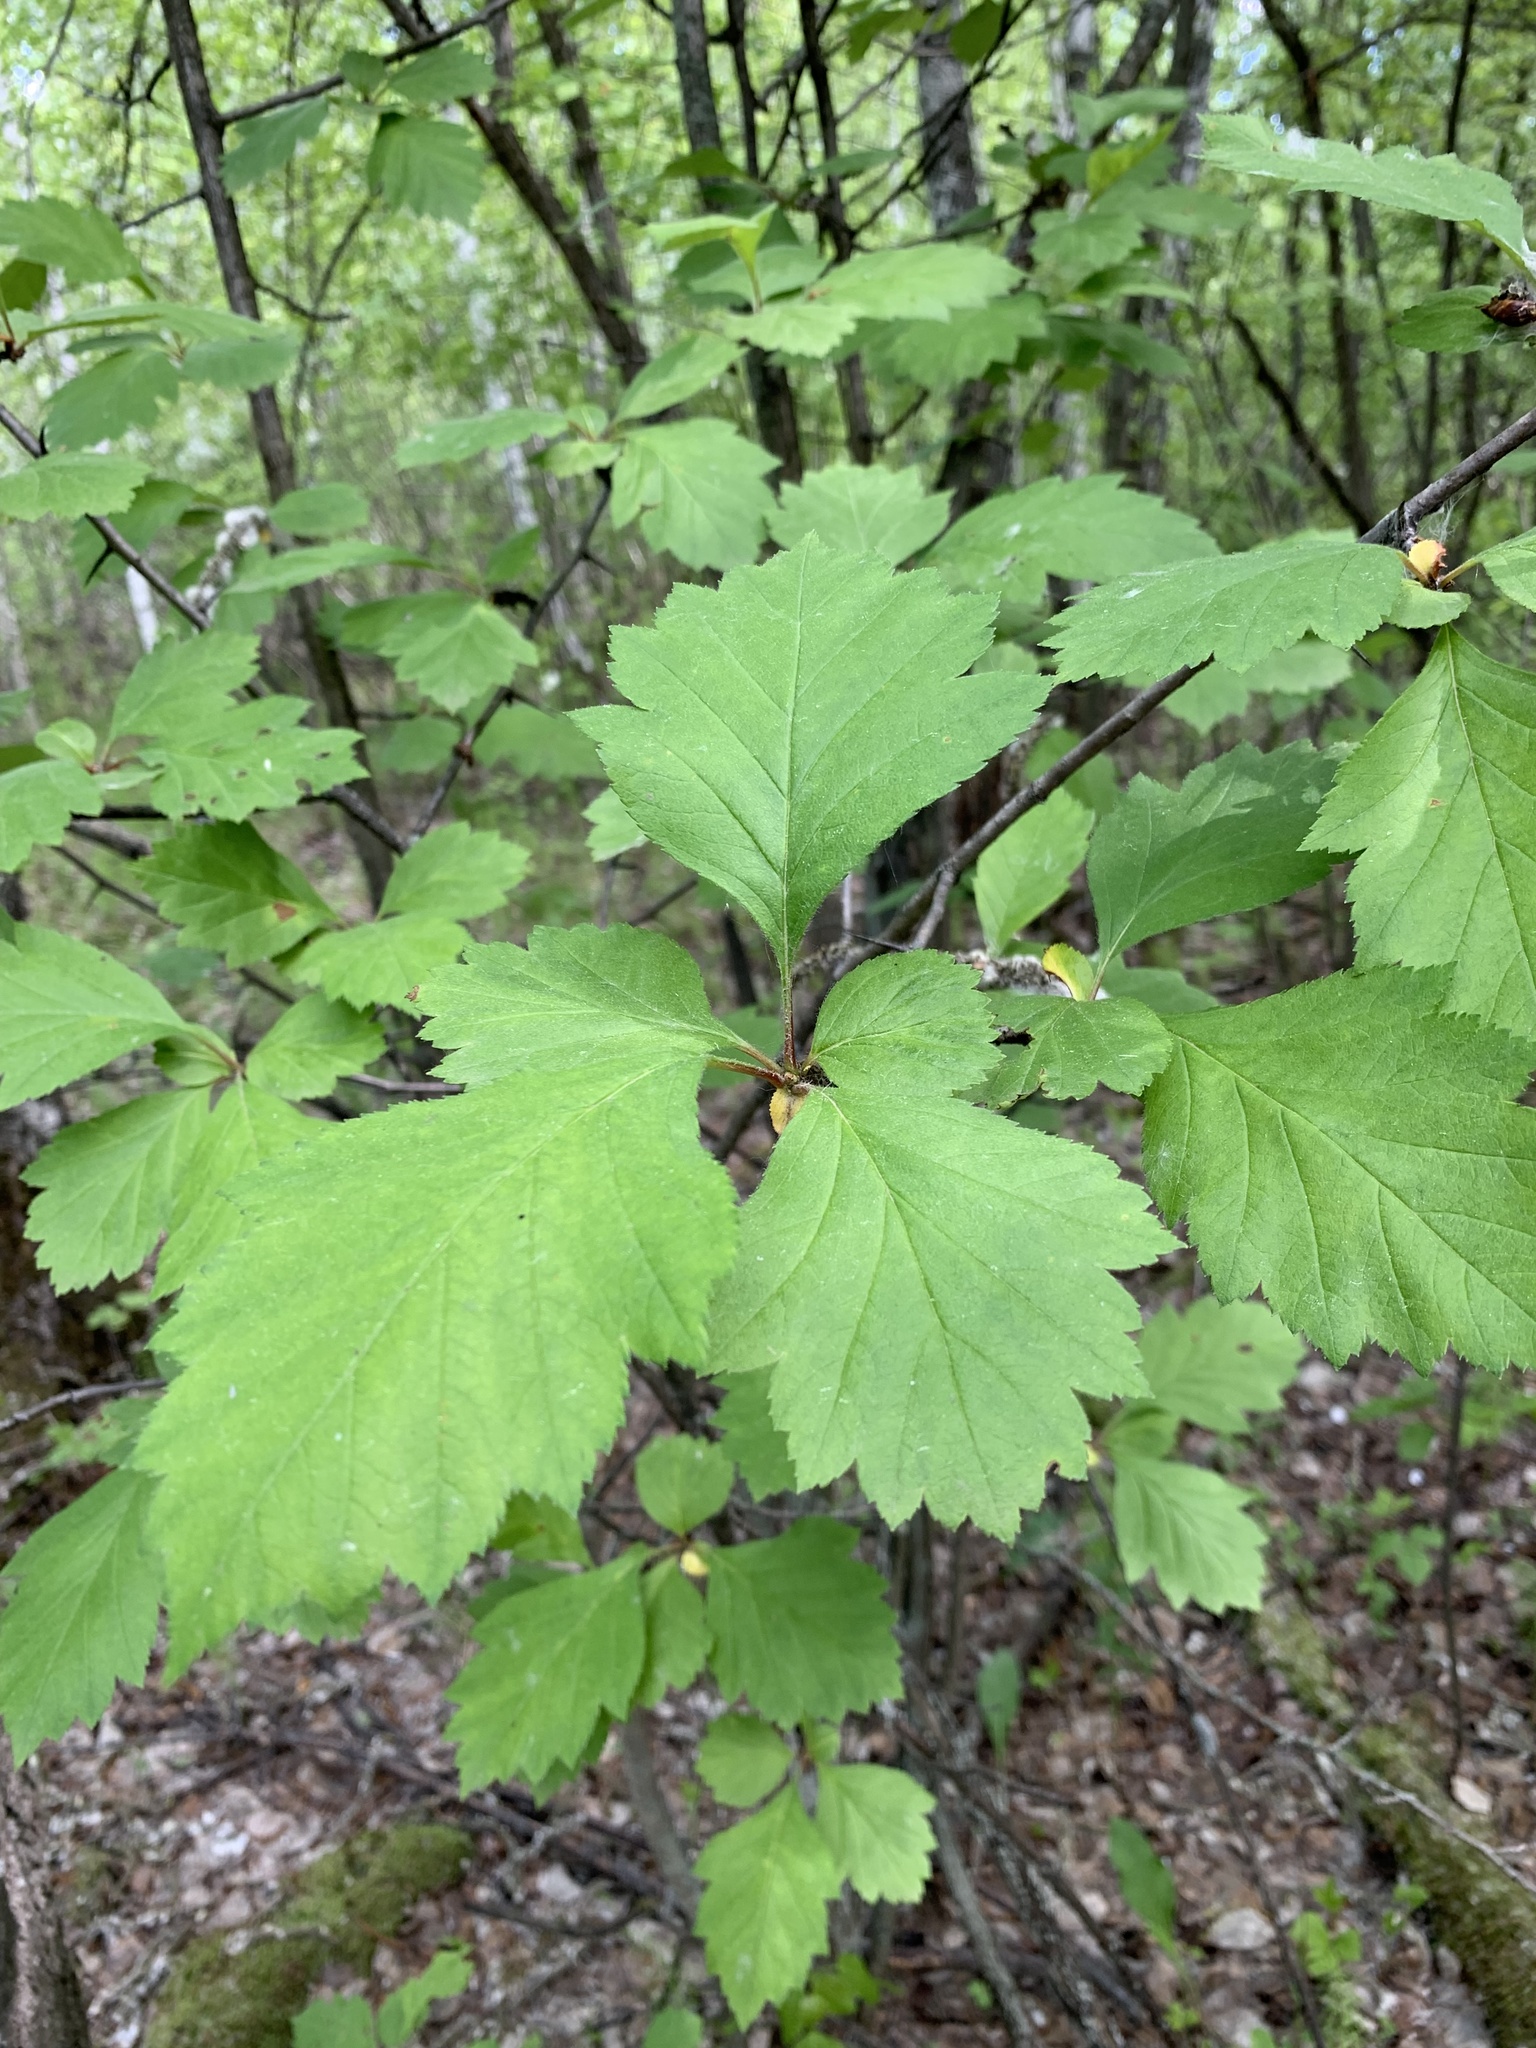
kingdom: Plantae
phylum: Tracheophyta
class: Magnoliopsida
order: Rosales
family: Rosaceae
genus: Crataegus
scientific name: Crataegus sanguinea
